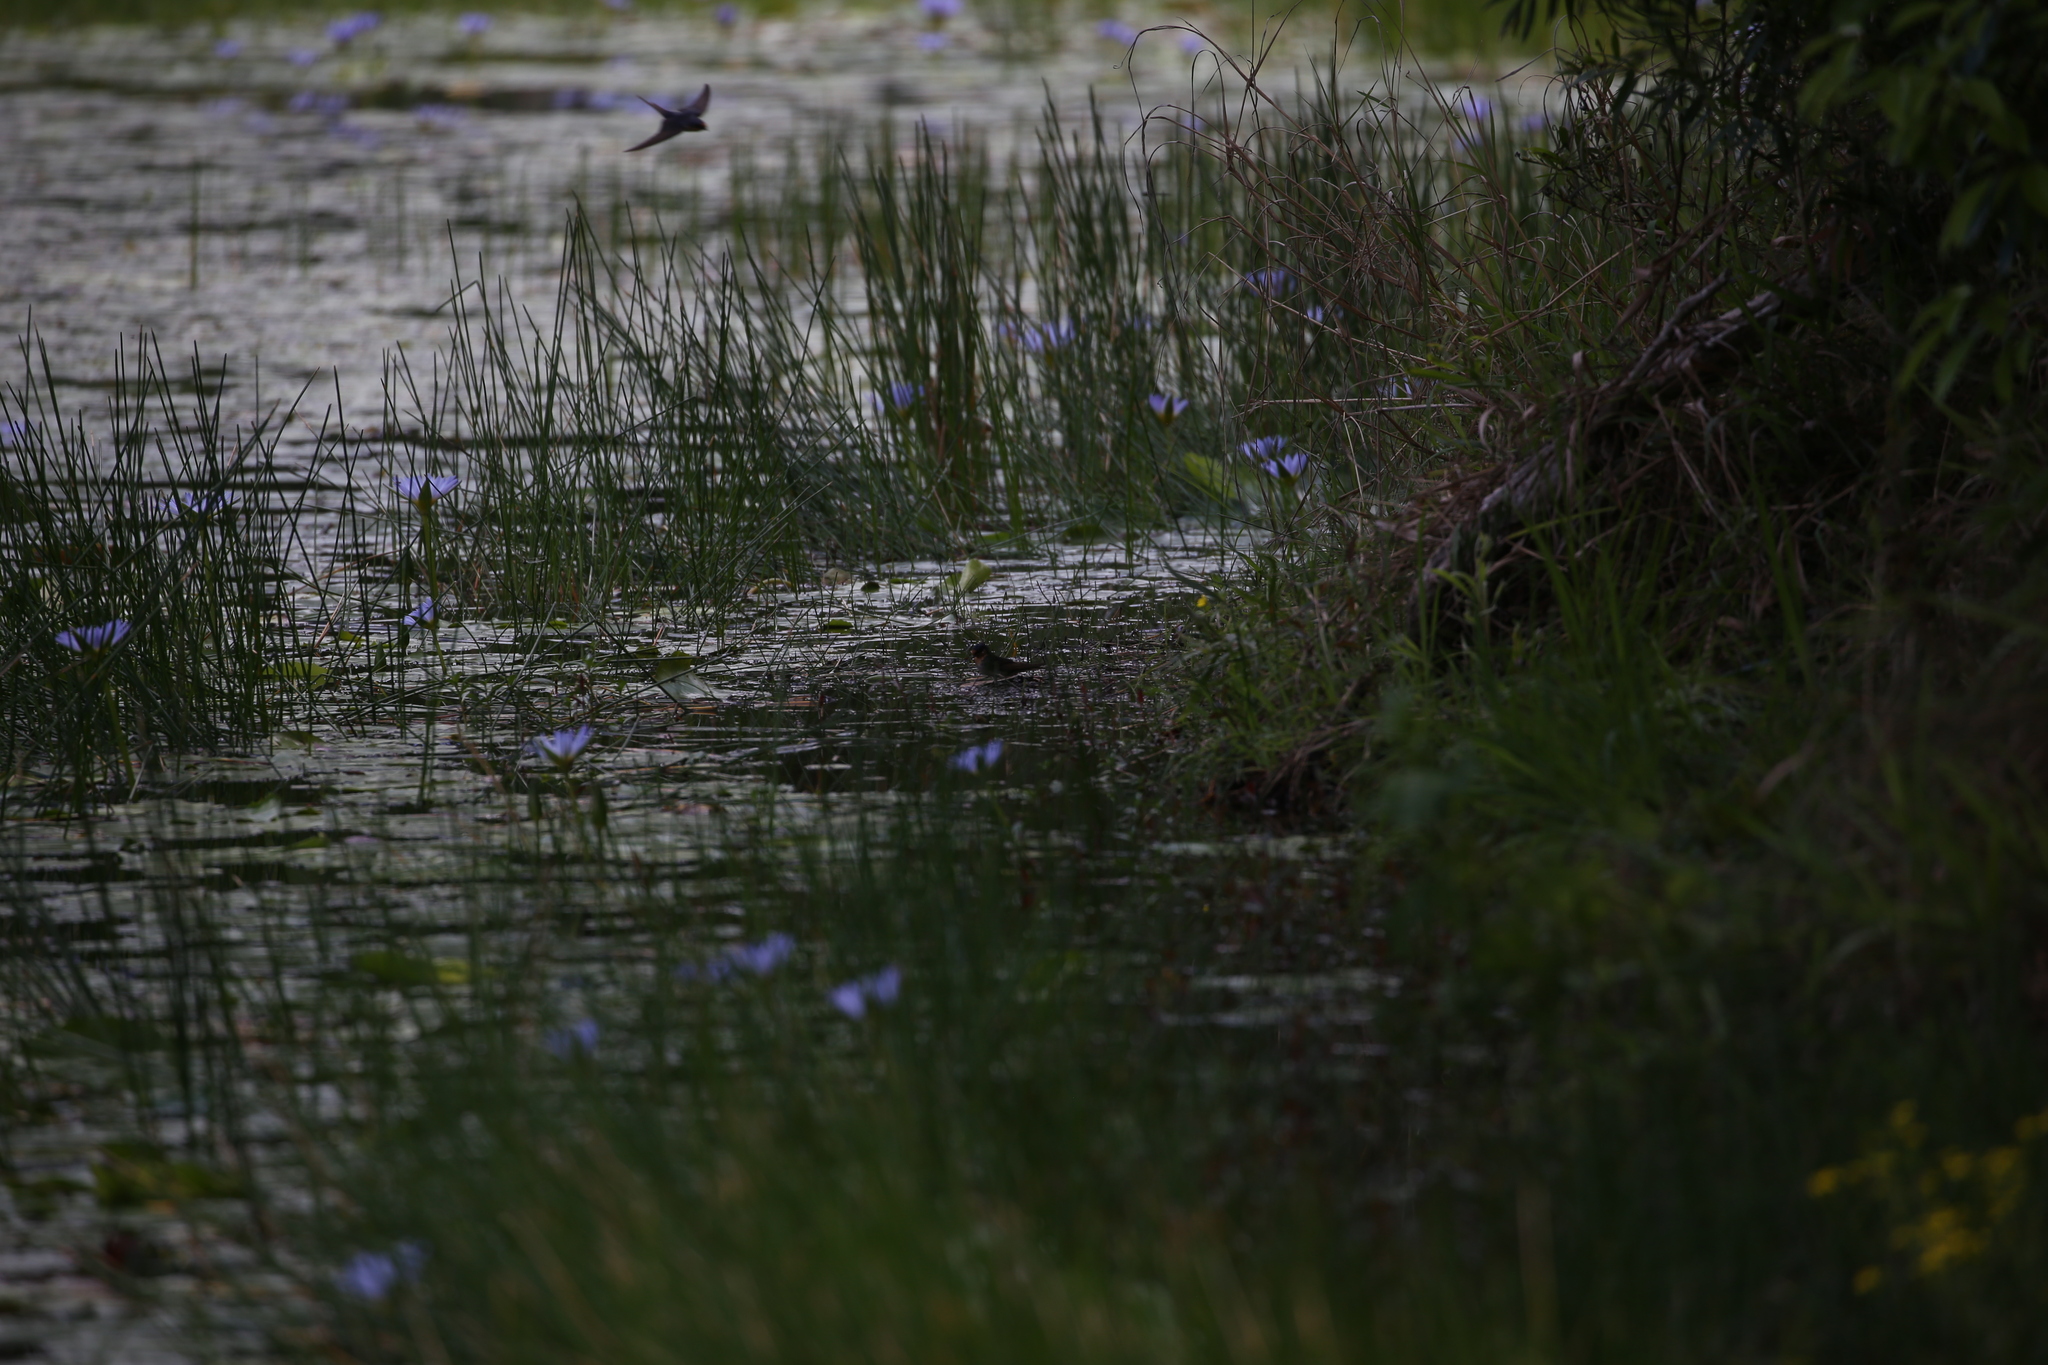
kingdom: Animalia
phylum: Chordata
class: Aves
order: Passeriformes
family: Hirundinidae
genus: Hirundo
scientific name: Hirundo neoxena
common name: Welcome swallow
